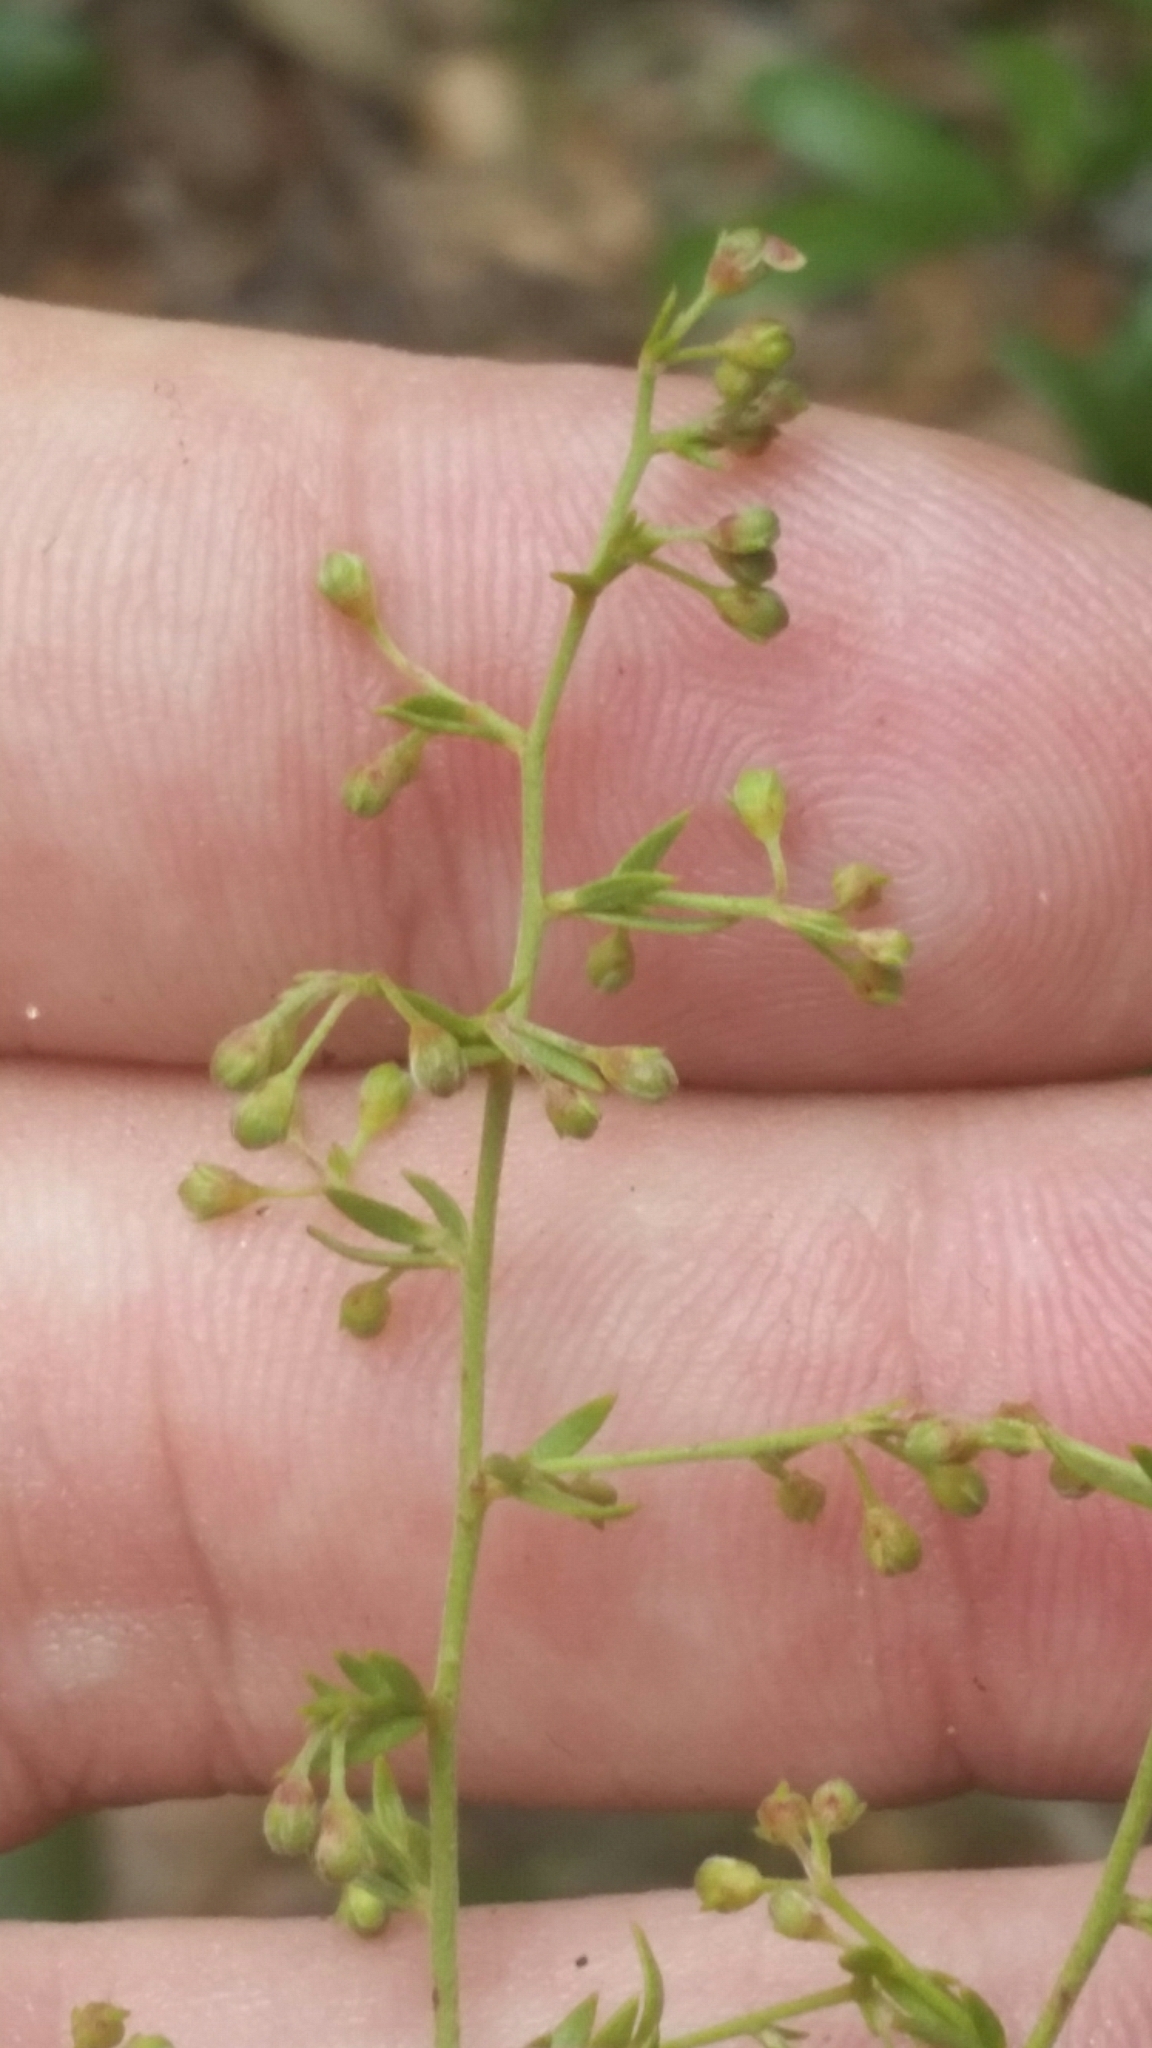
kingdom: Plantae
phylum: Tracheophyta
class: Magnoliopsida
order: Malvales
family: Cistaceae
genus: Lechea
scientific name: Lechea cernua
